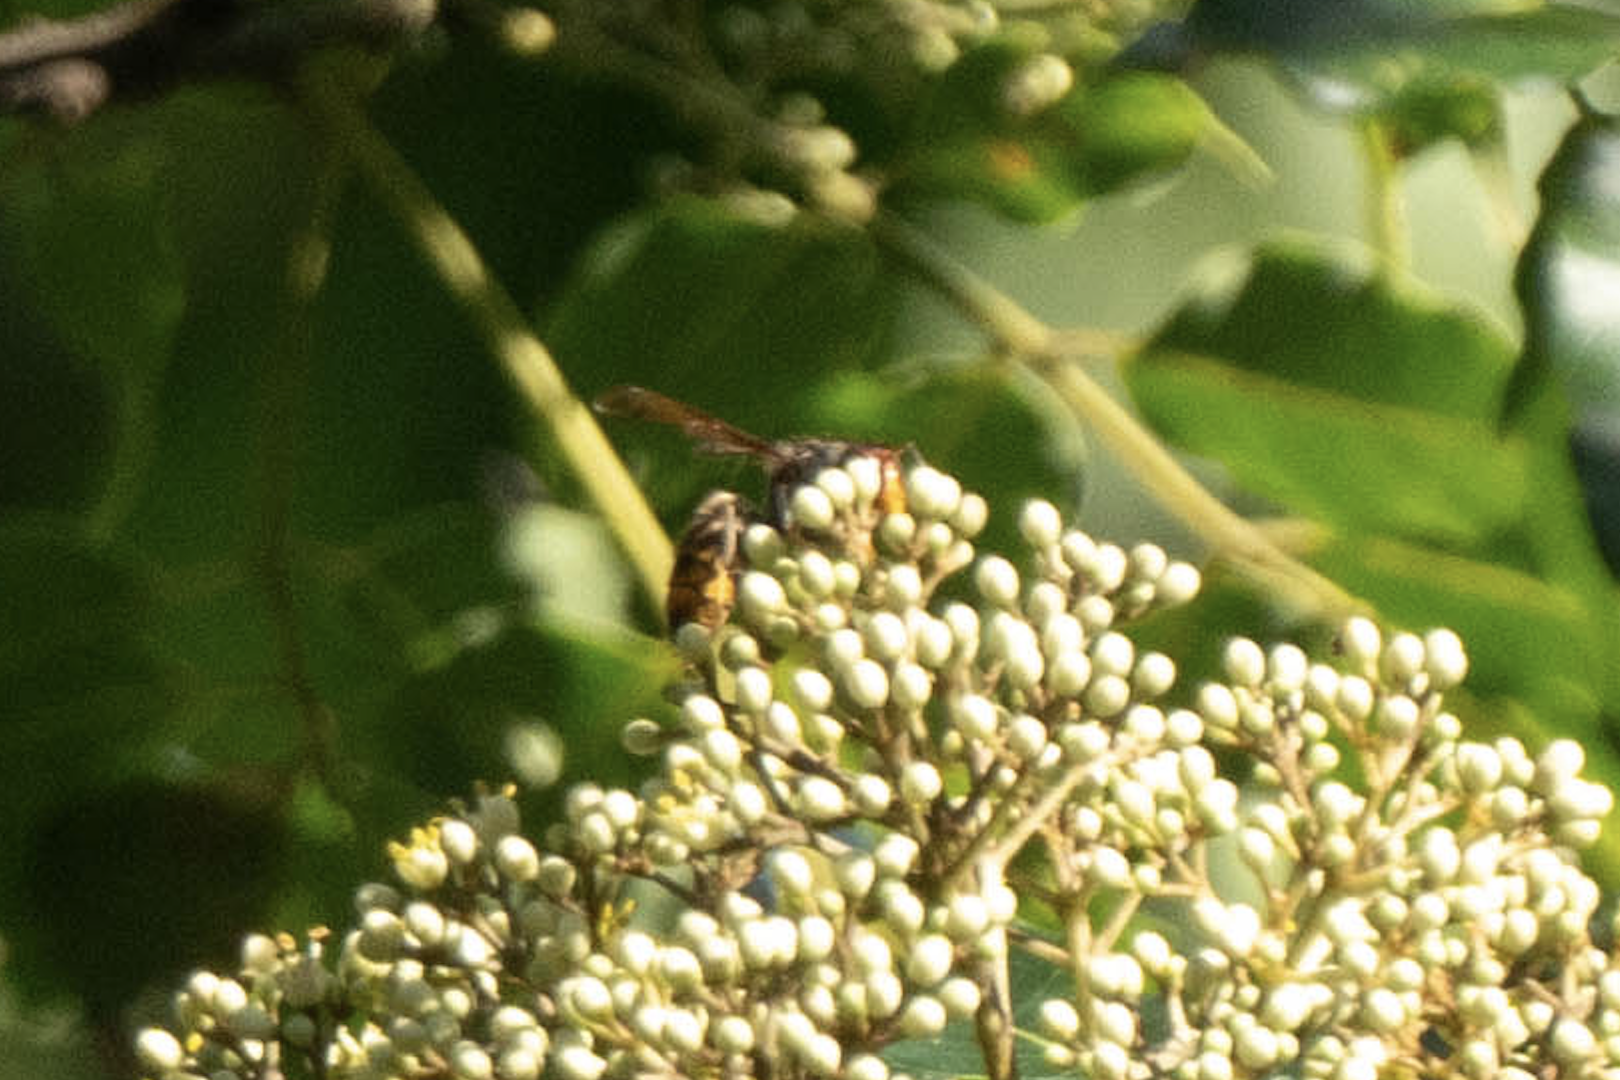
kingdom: Animalia
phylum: Arthropoda
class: Insecta
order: Hymenoptera
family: Vespidae
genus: Vespa
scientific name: Vespa velutina
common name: Asian hornet
